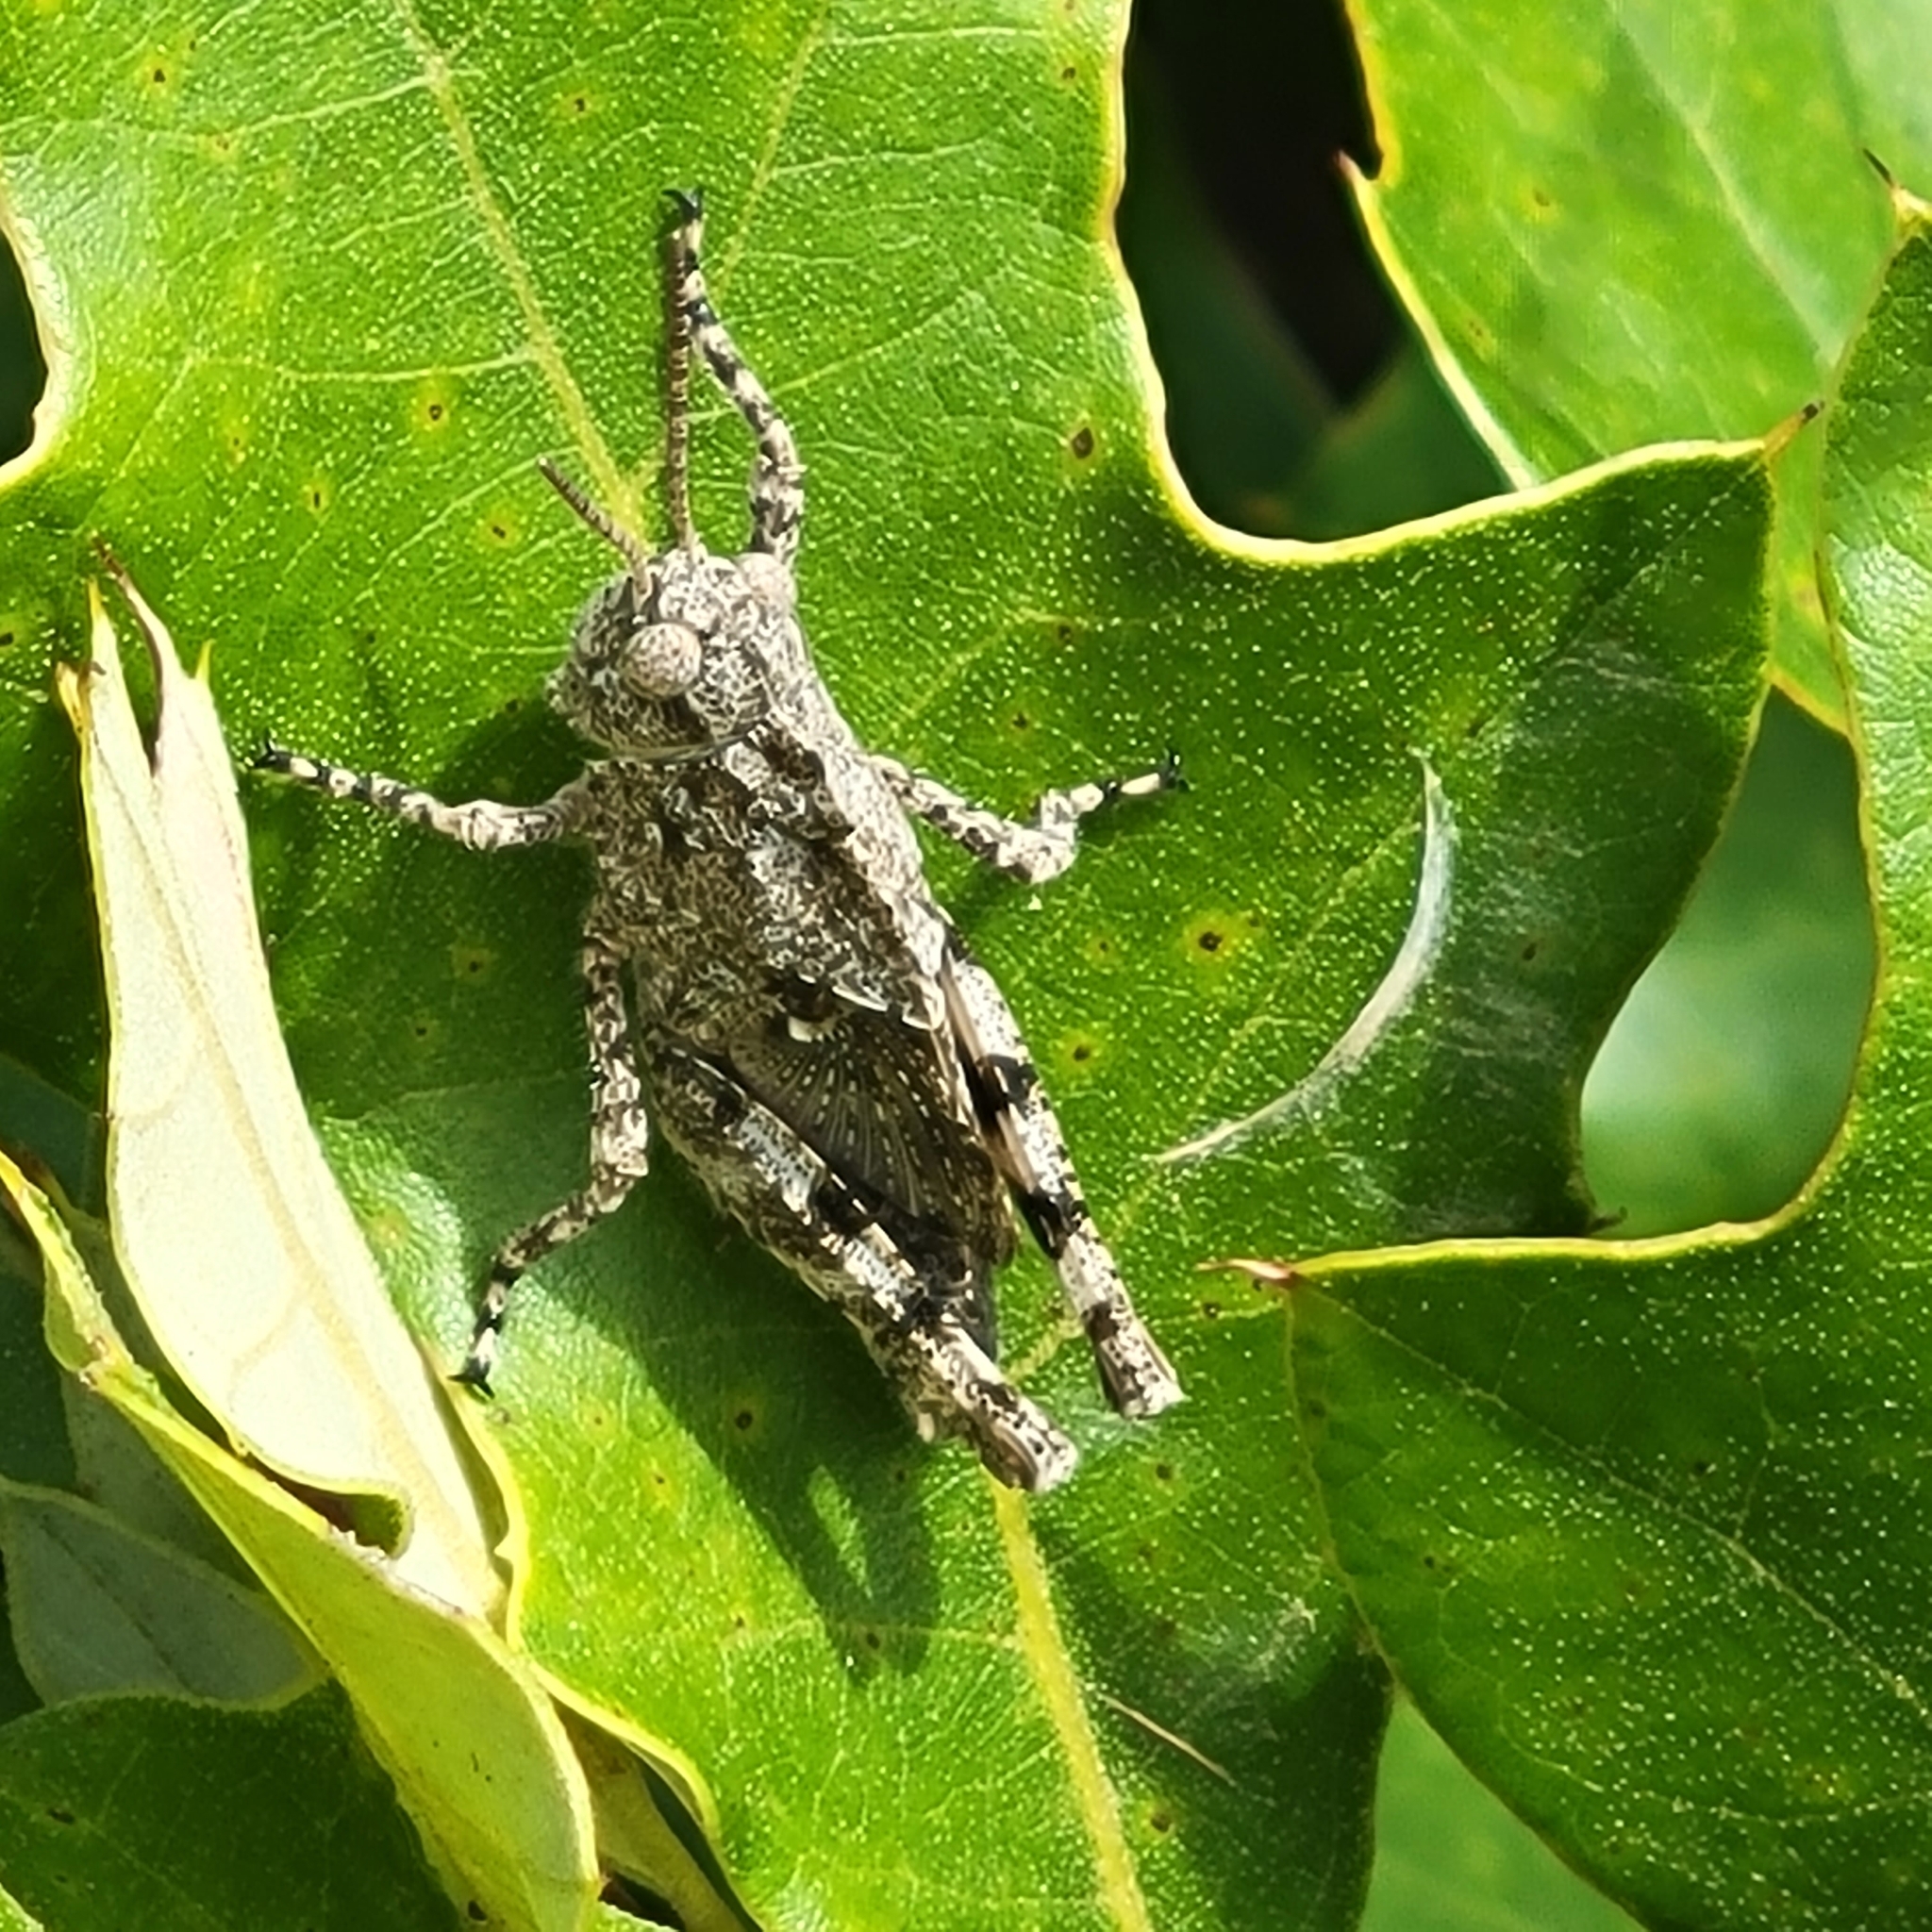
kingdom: Animalia
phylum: Arthropoda
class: Insecta
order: Orthoptera
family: Acrididae
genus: Dissosteira
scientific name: Dissosteira carolina
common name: Carolina grasshopper
